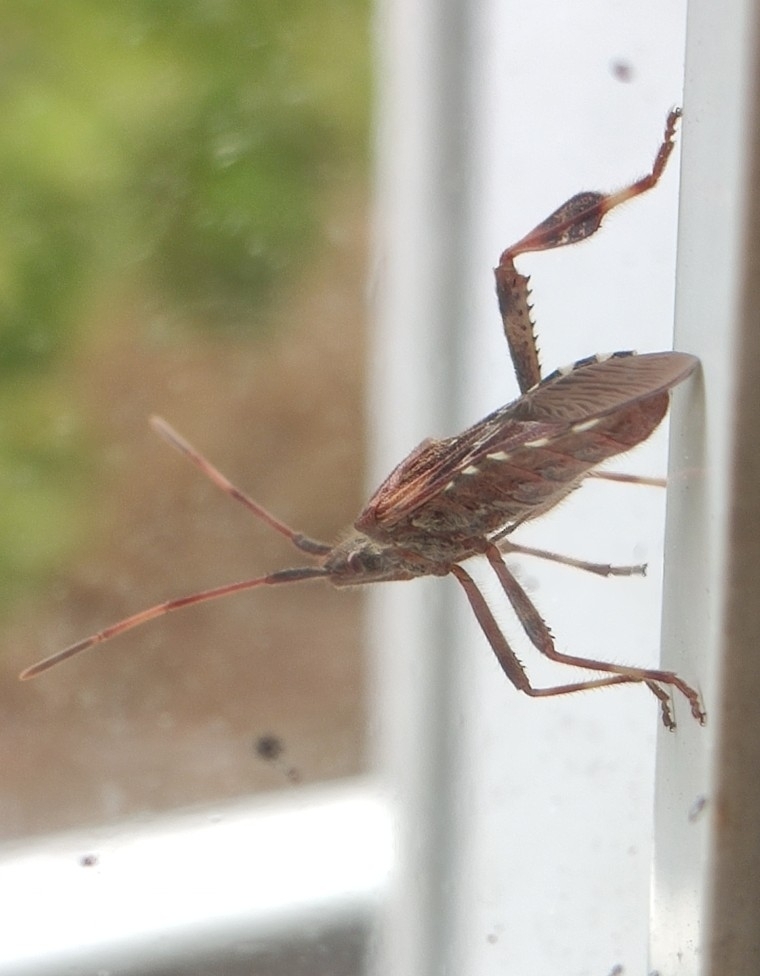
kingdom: Animalia
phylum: Arthropoda
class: Insecta
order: Hemiptera
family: Coreidae
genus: Leptoglossus
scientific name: Leptoglossus occidentalis
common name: Western conifer-seed bug
